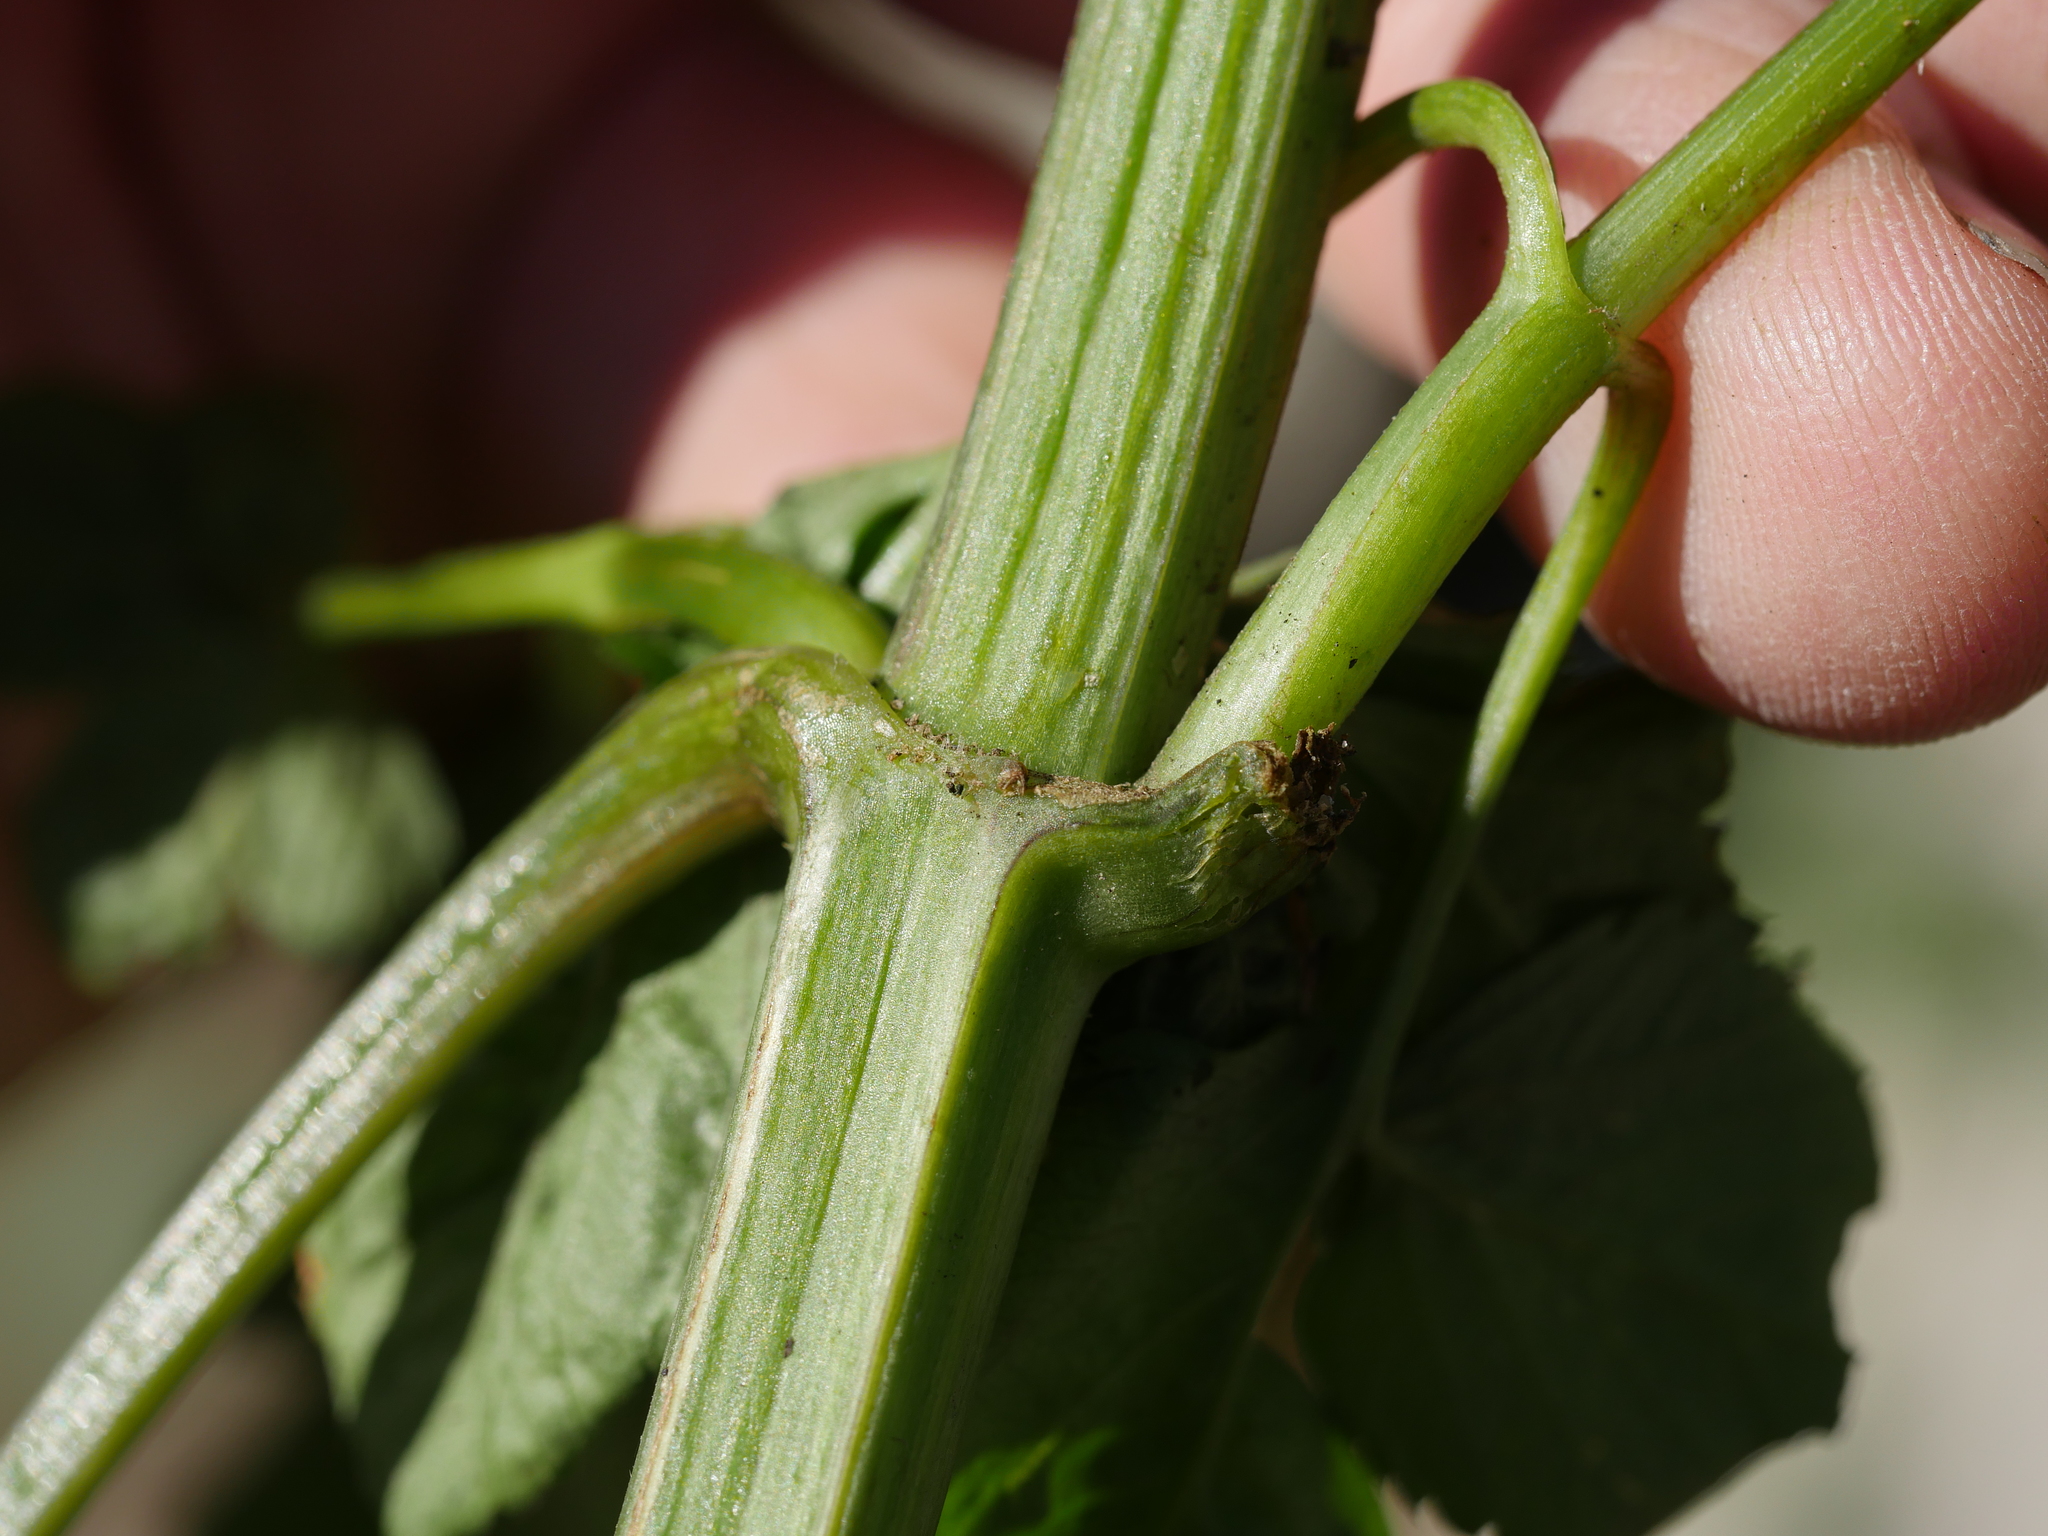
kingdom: Plantae
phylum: Tracheophyta
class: Magnoliopsida
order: Asterales
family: Asteraceae
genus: Bidens
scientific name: Bidens pilosa
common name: Black-jack
